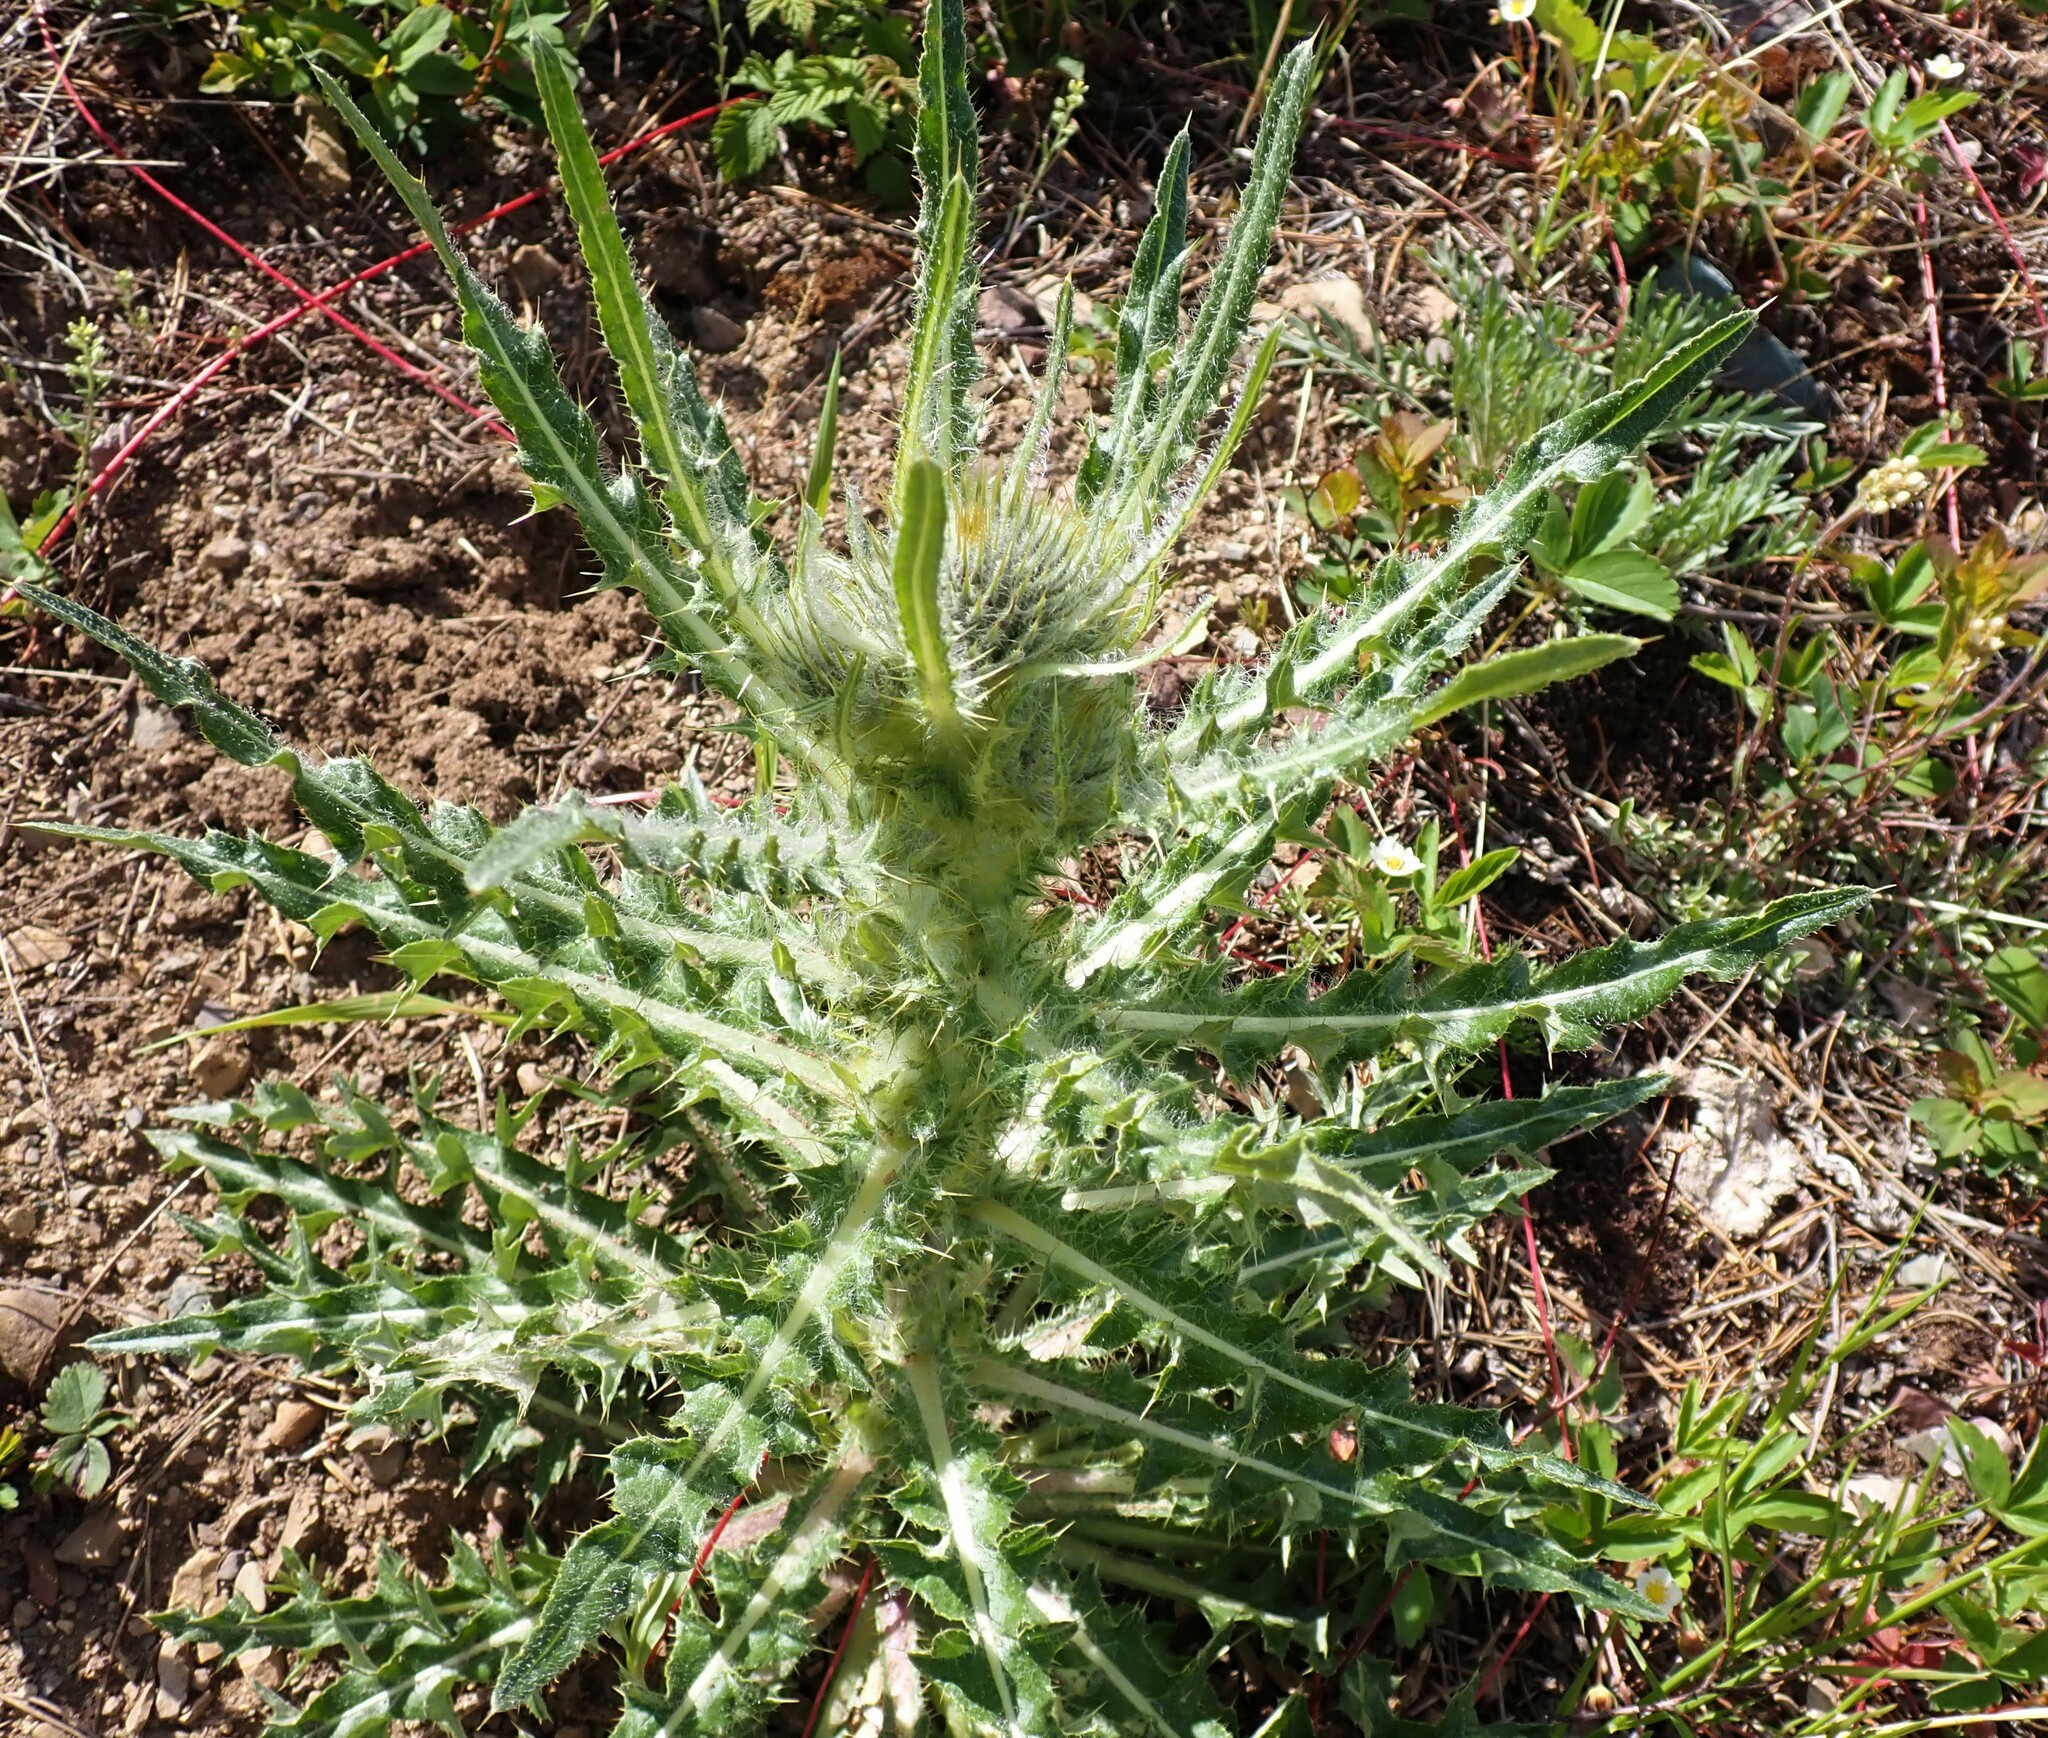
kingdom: Plantae
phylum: Tracheophyta
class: Magnoliopsida
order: Asterales
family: Asteraceae
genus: Cirsium
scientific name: Cirsium hookerianum
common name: Hooker's thistle
